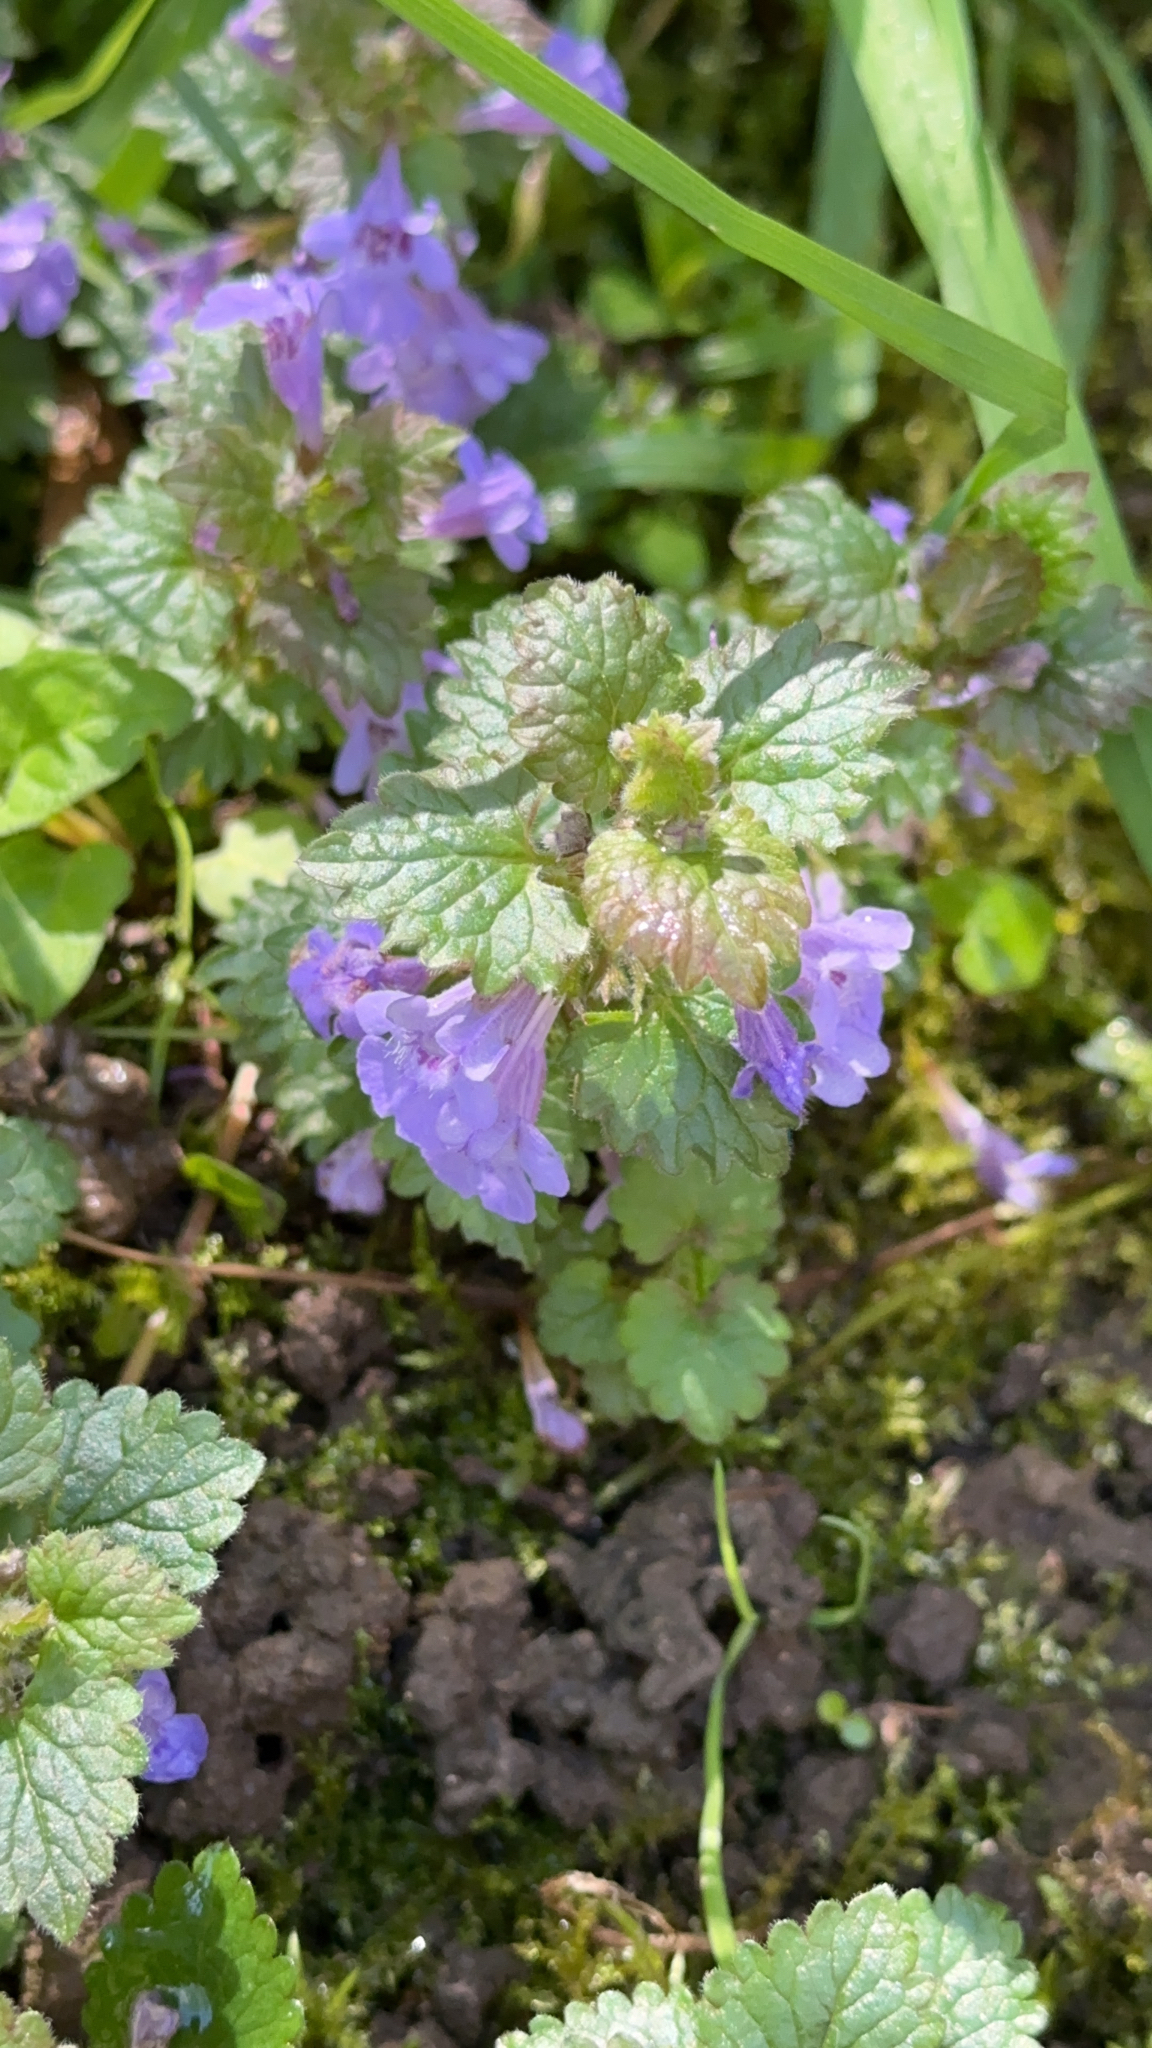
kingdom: Plantae
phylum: Tracheophyta
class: Magnoliopsida
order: Lamiales
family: Lamiaceae
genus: Glechoma
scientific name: Glechoma hederacea
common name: Ground ivy
